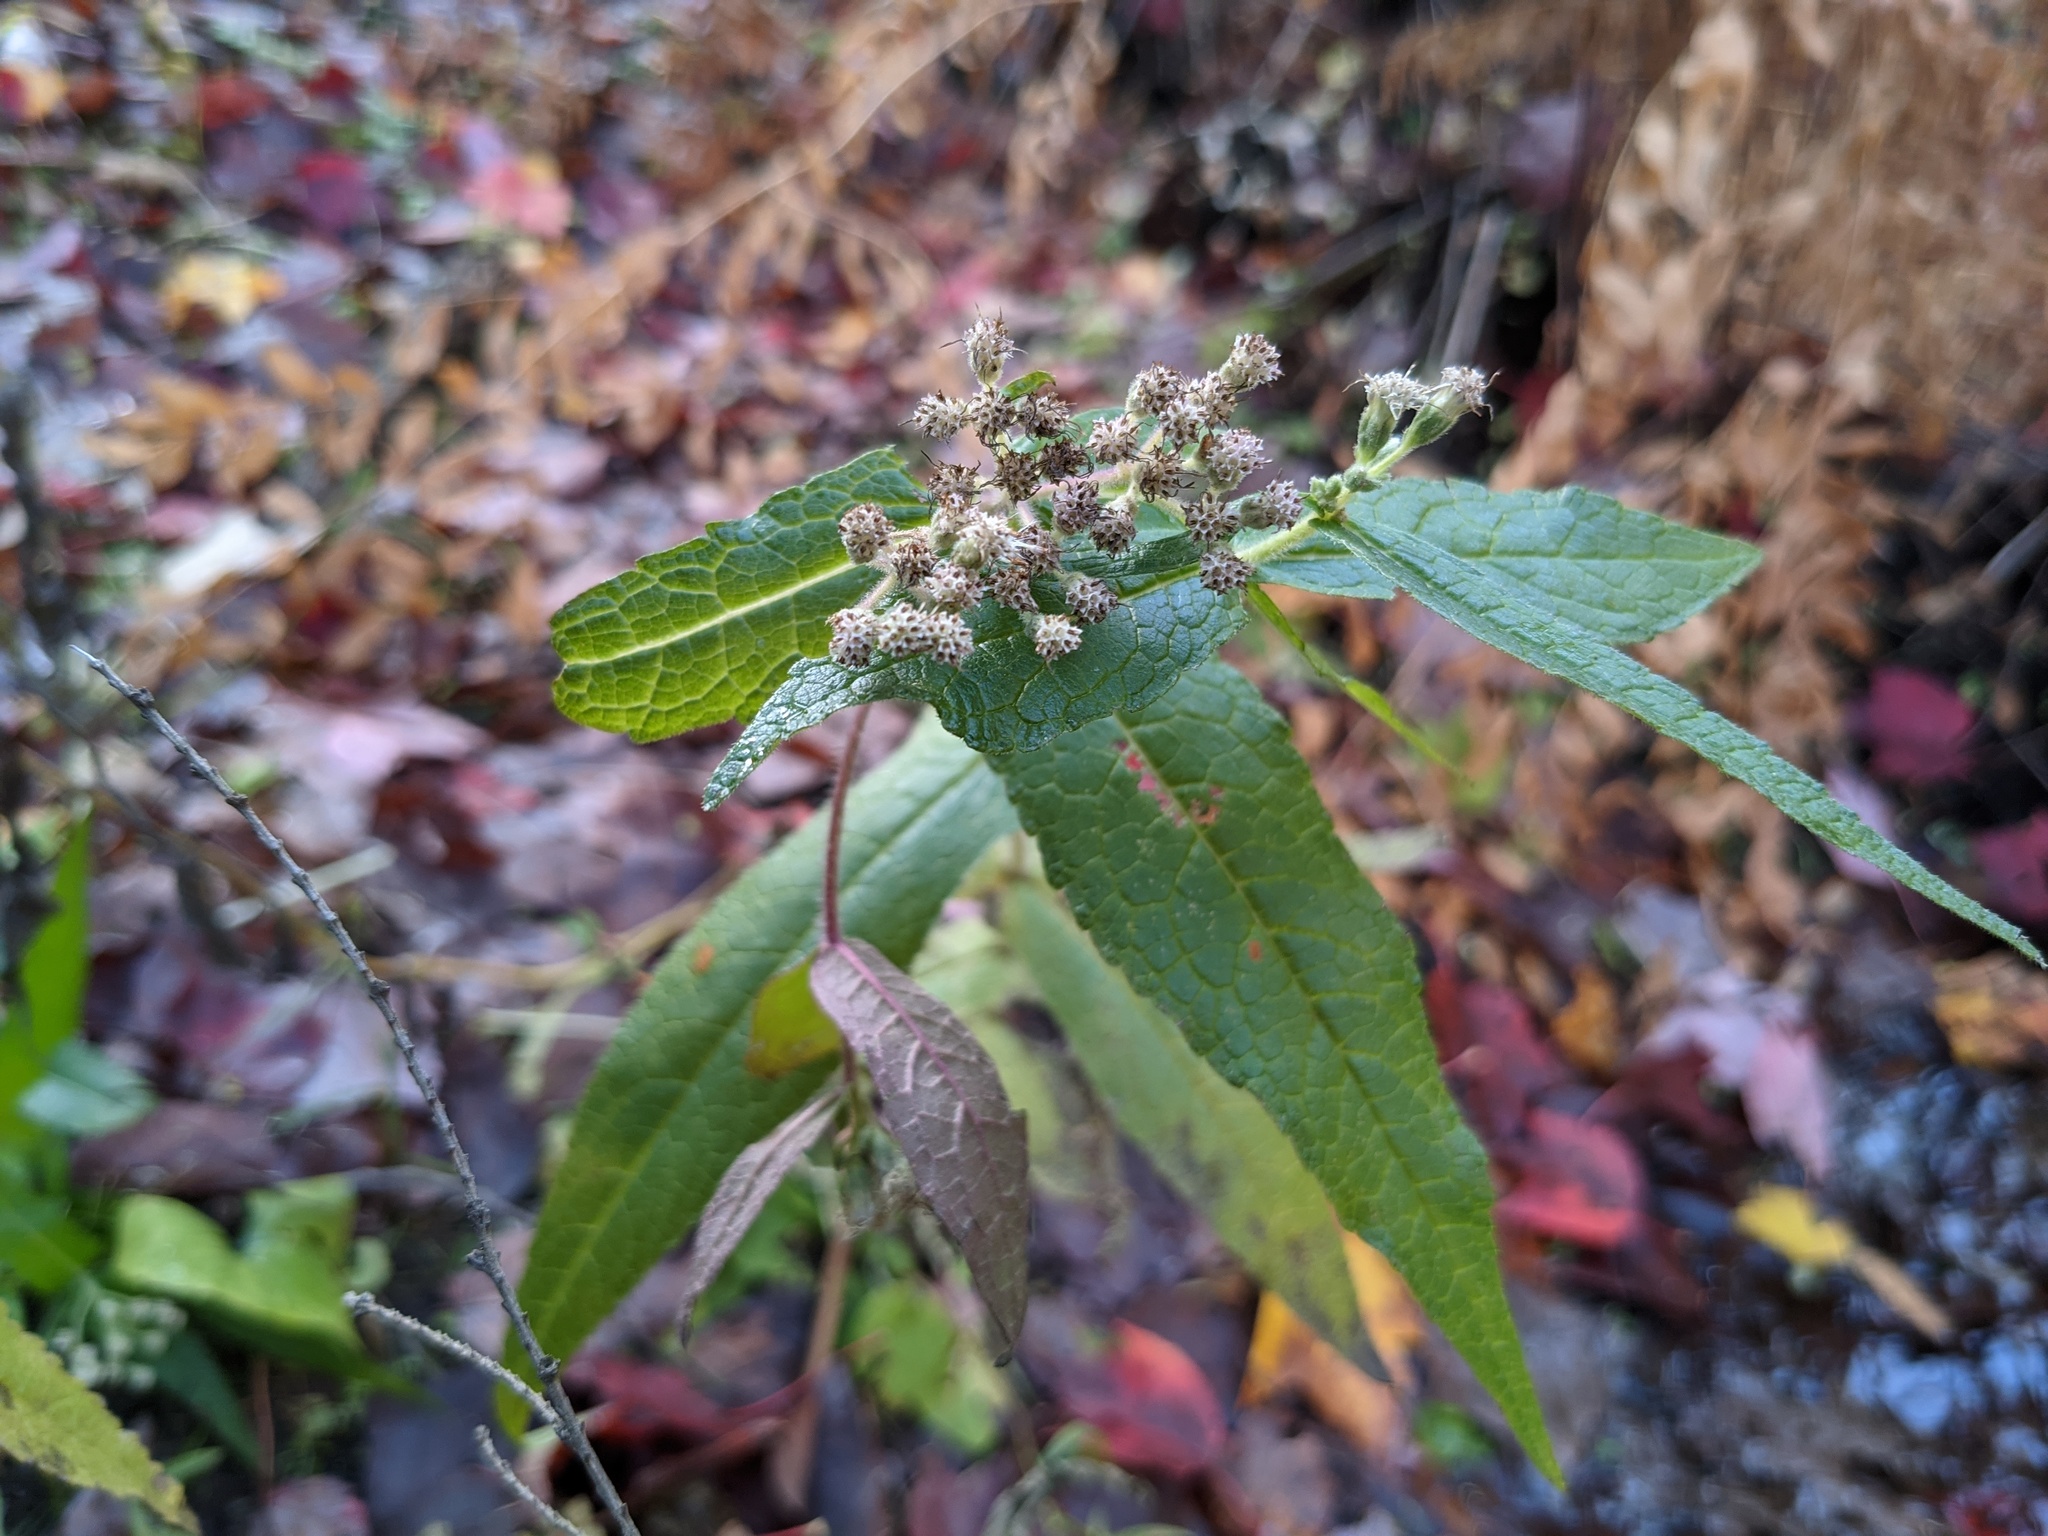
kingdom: Plantae
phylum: Tracheophyta
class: Magnoliopsida
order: Asterales
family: Asteraceae
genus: Eupatorium
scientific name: Eupatorium perfoliatum
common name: Boneset
